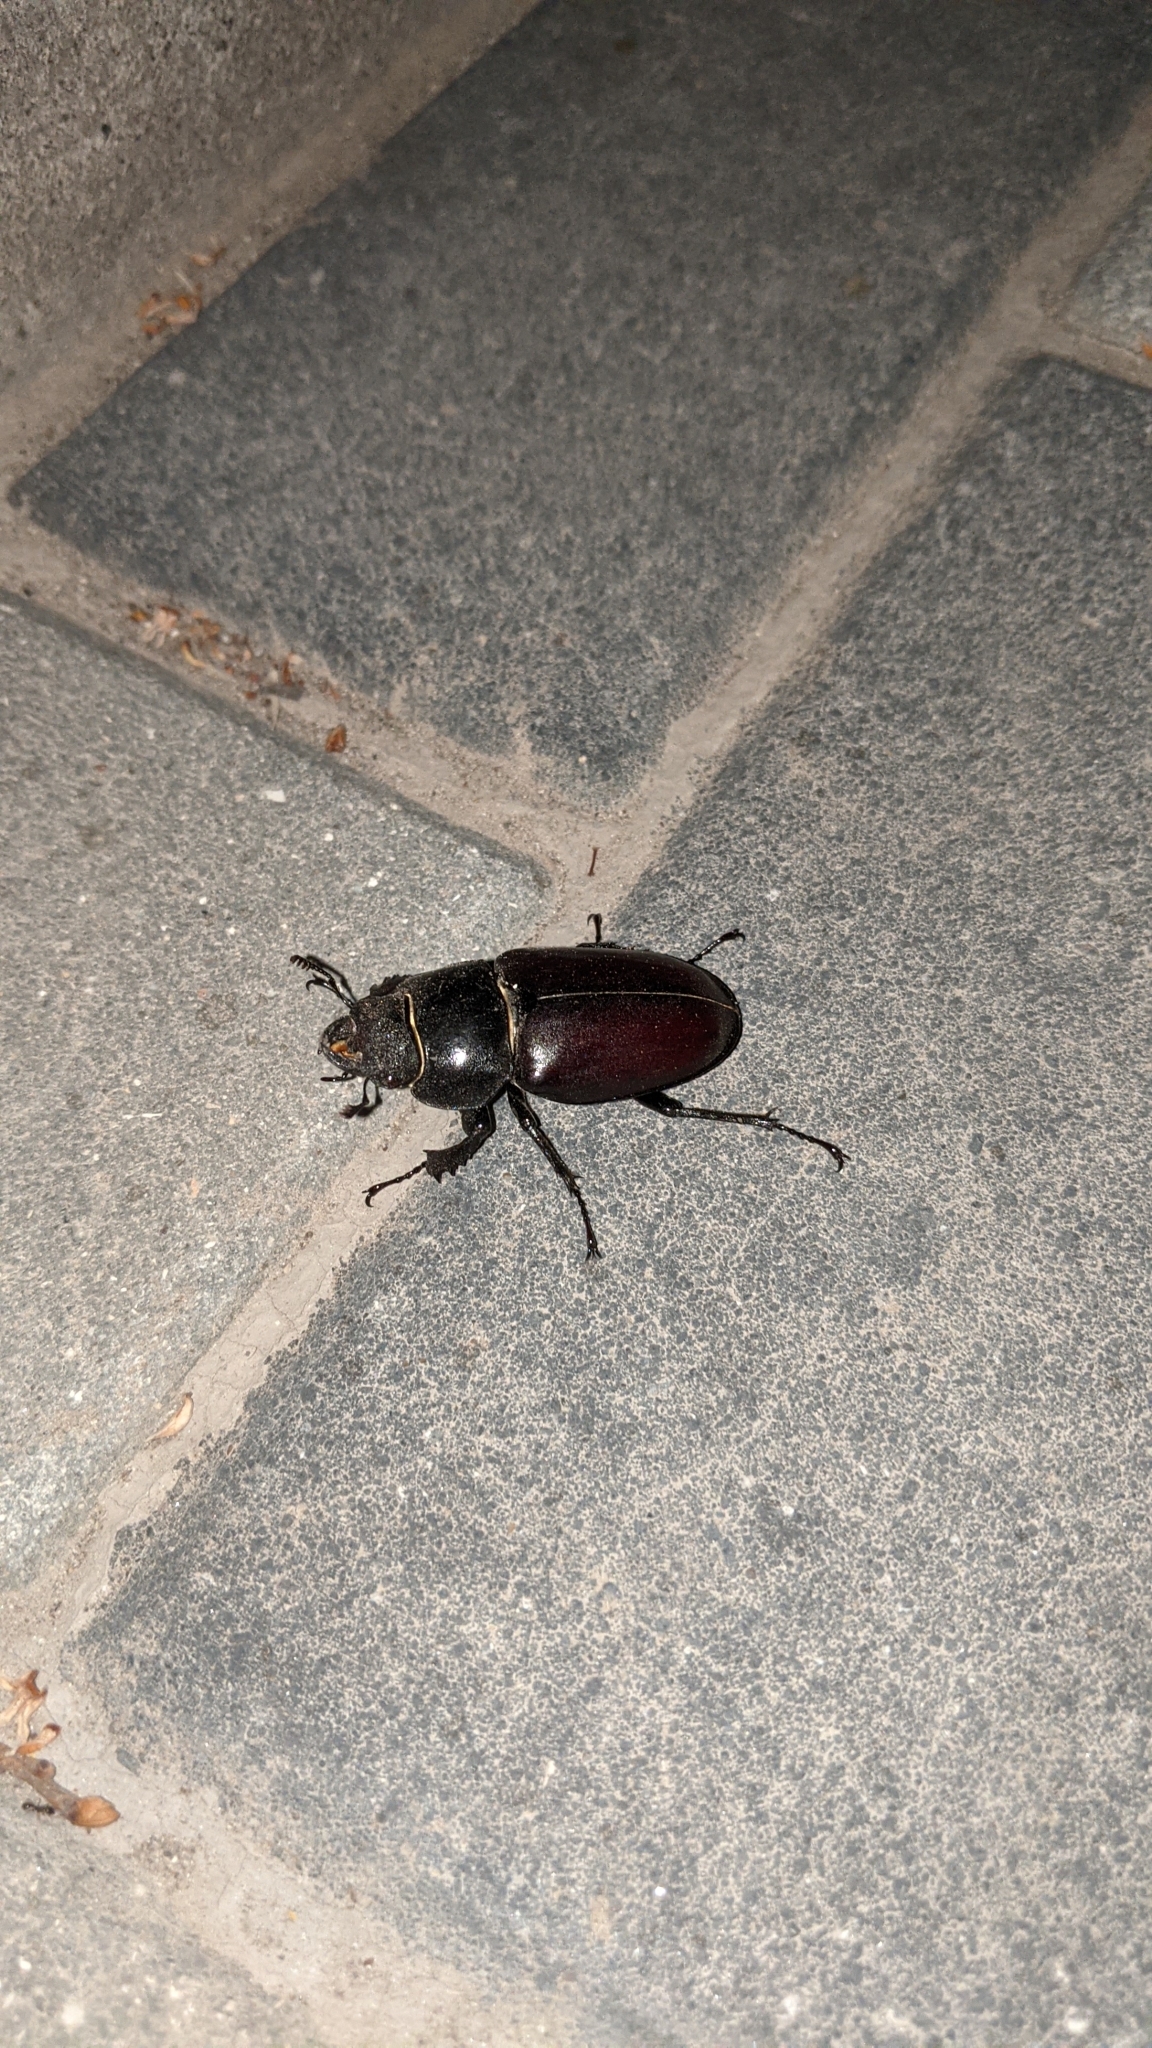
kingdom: Animalia
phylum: Arthropoda
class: Insecta
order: Coleoptera
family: Lucanidae
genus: Lucanus
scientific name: Lucanus cervus
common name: Stag beetle
